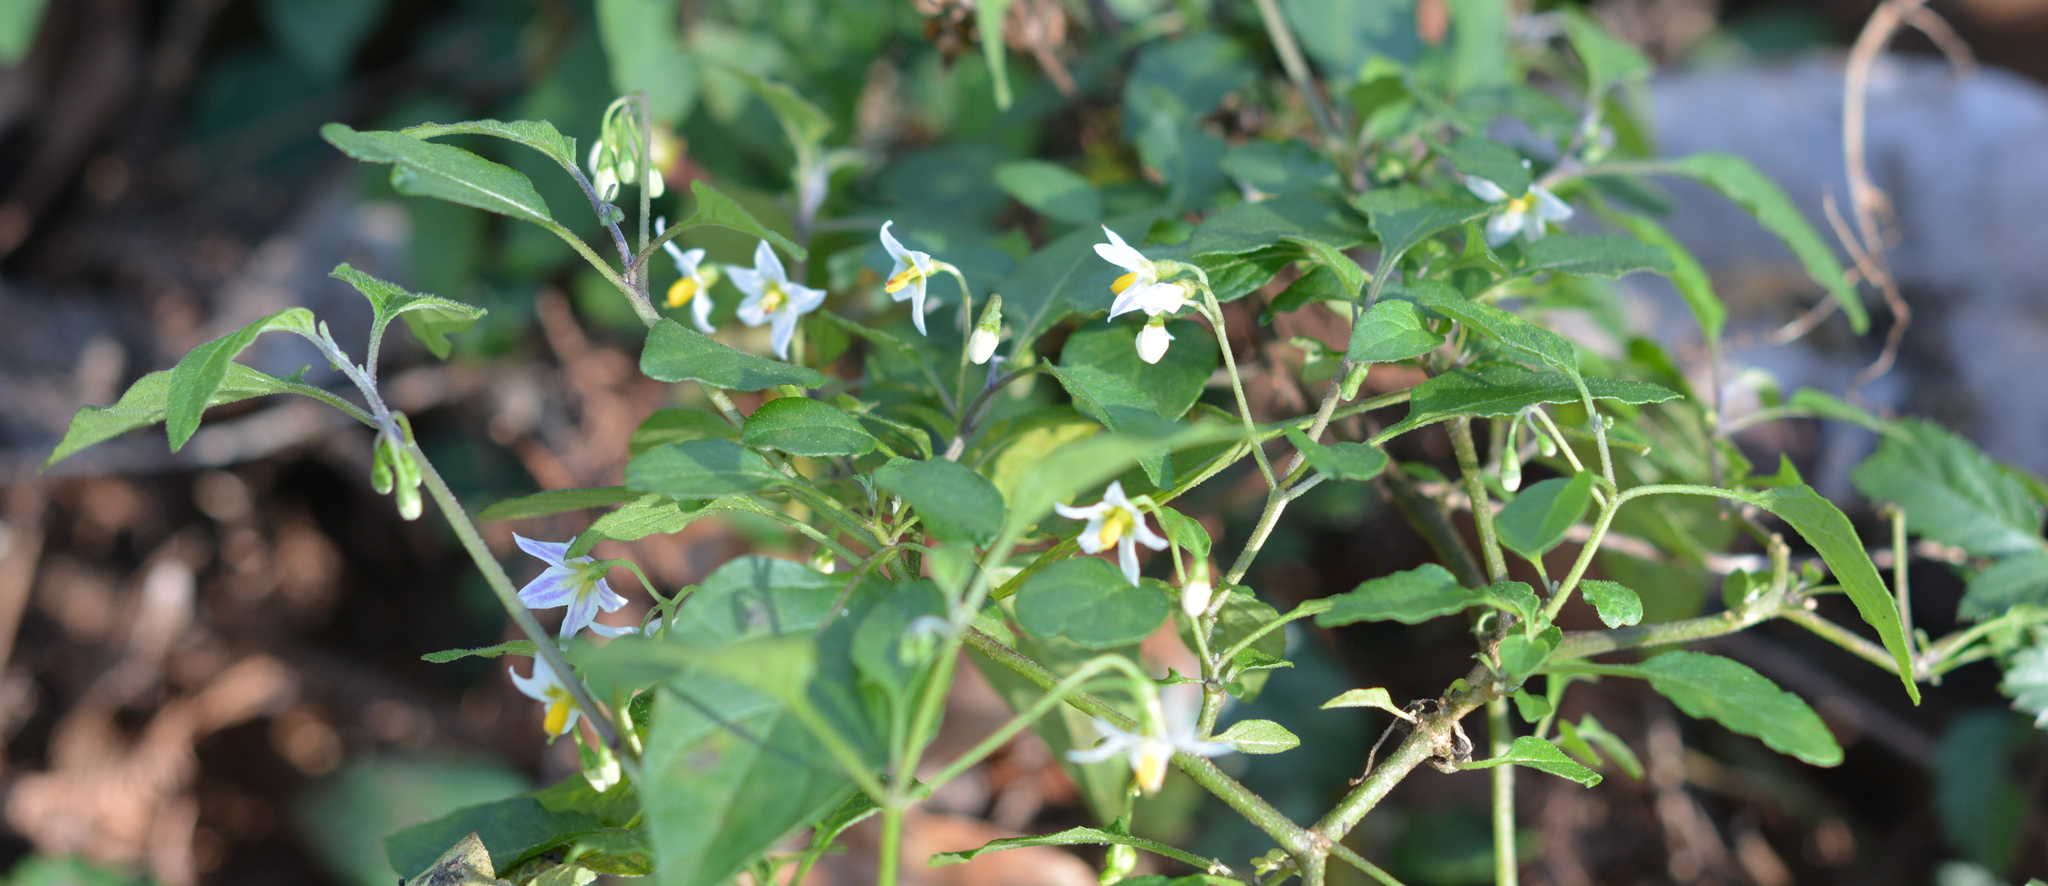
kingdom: Plantae
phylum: Tracheophyta
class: Magnoliopsida
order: Solanales
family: Solanaceae
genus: Solanum
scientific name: Solanum americanum
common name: American black nightshade
